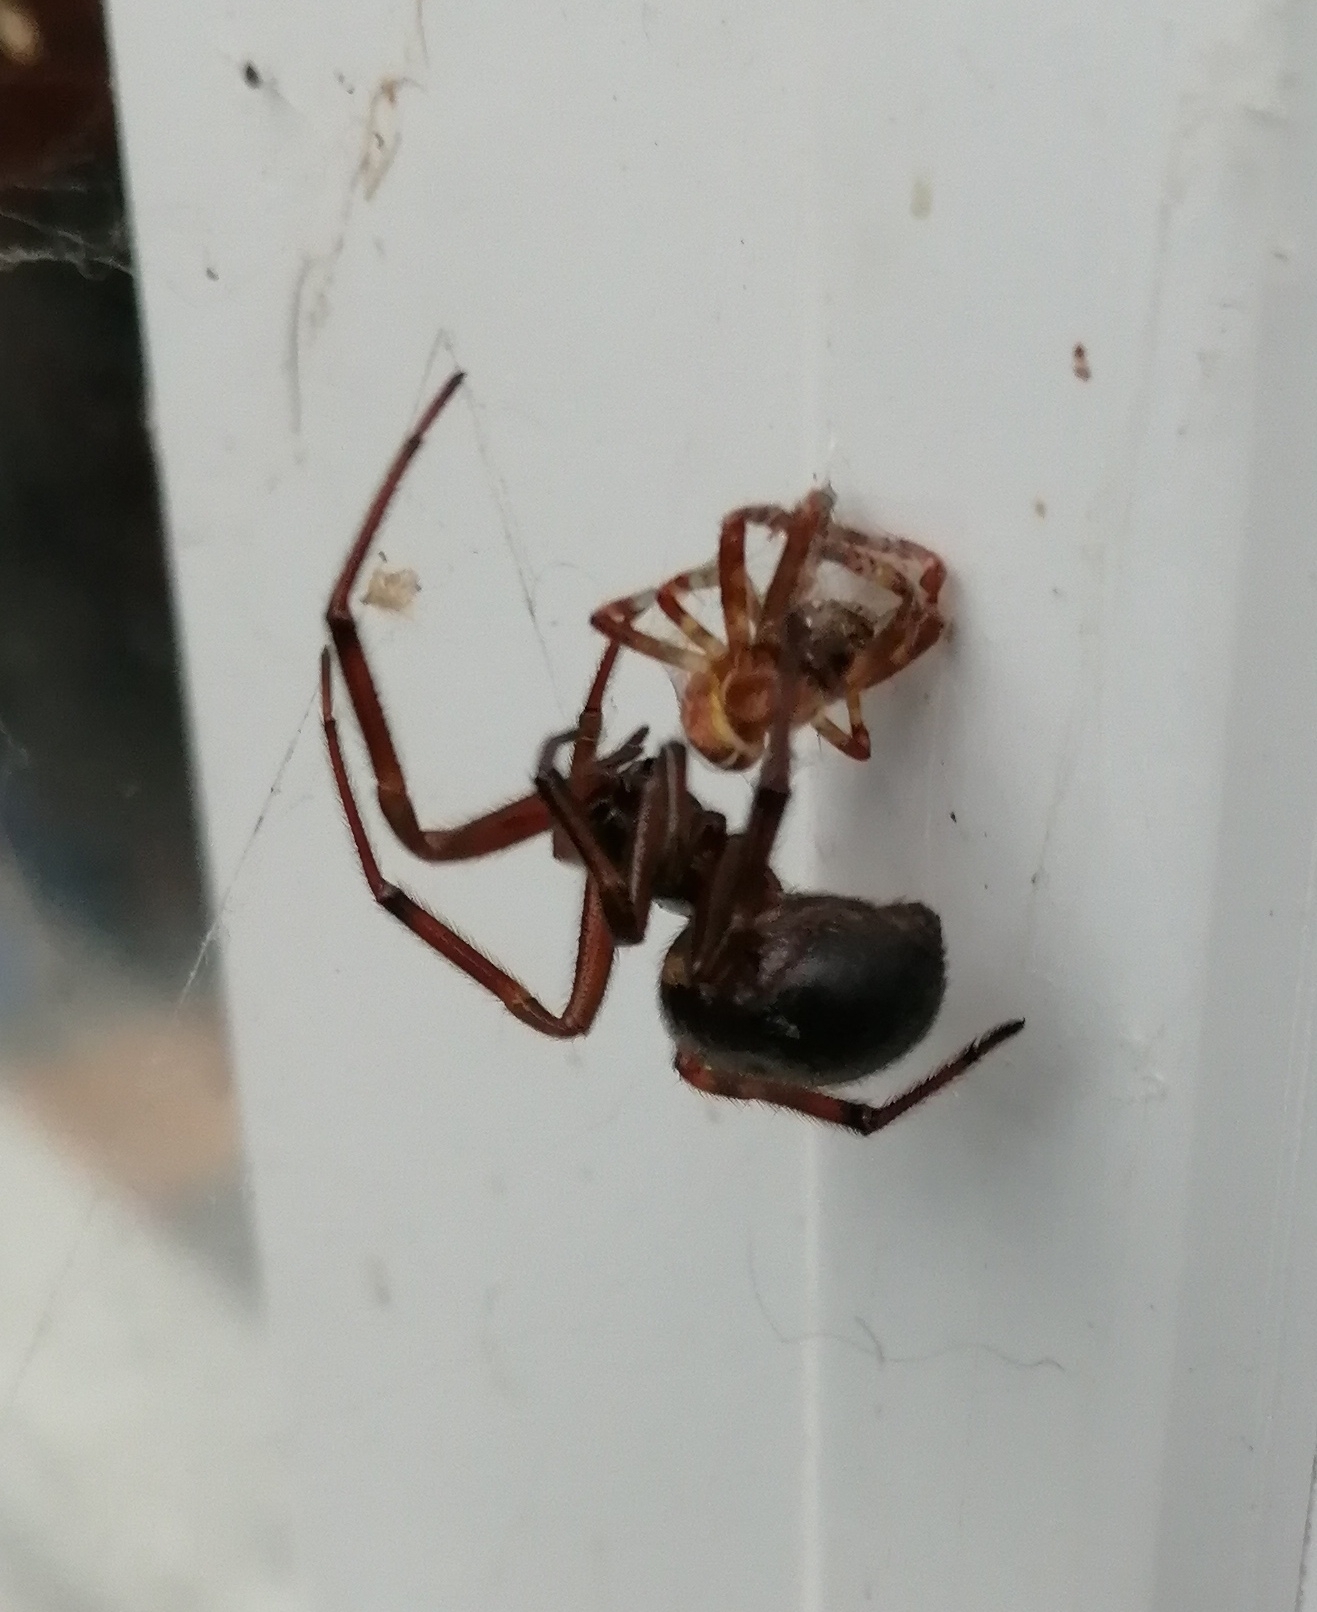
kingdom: Animalia
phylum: Arthropoda
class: Arachnida
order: Araneae
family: Theridiidae
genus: Steatoda
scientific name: Steatoda nobilis
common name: Cobweb weaver
